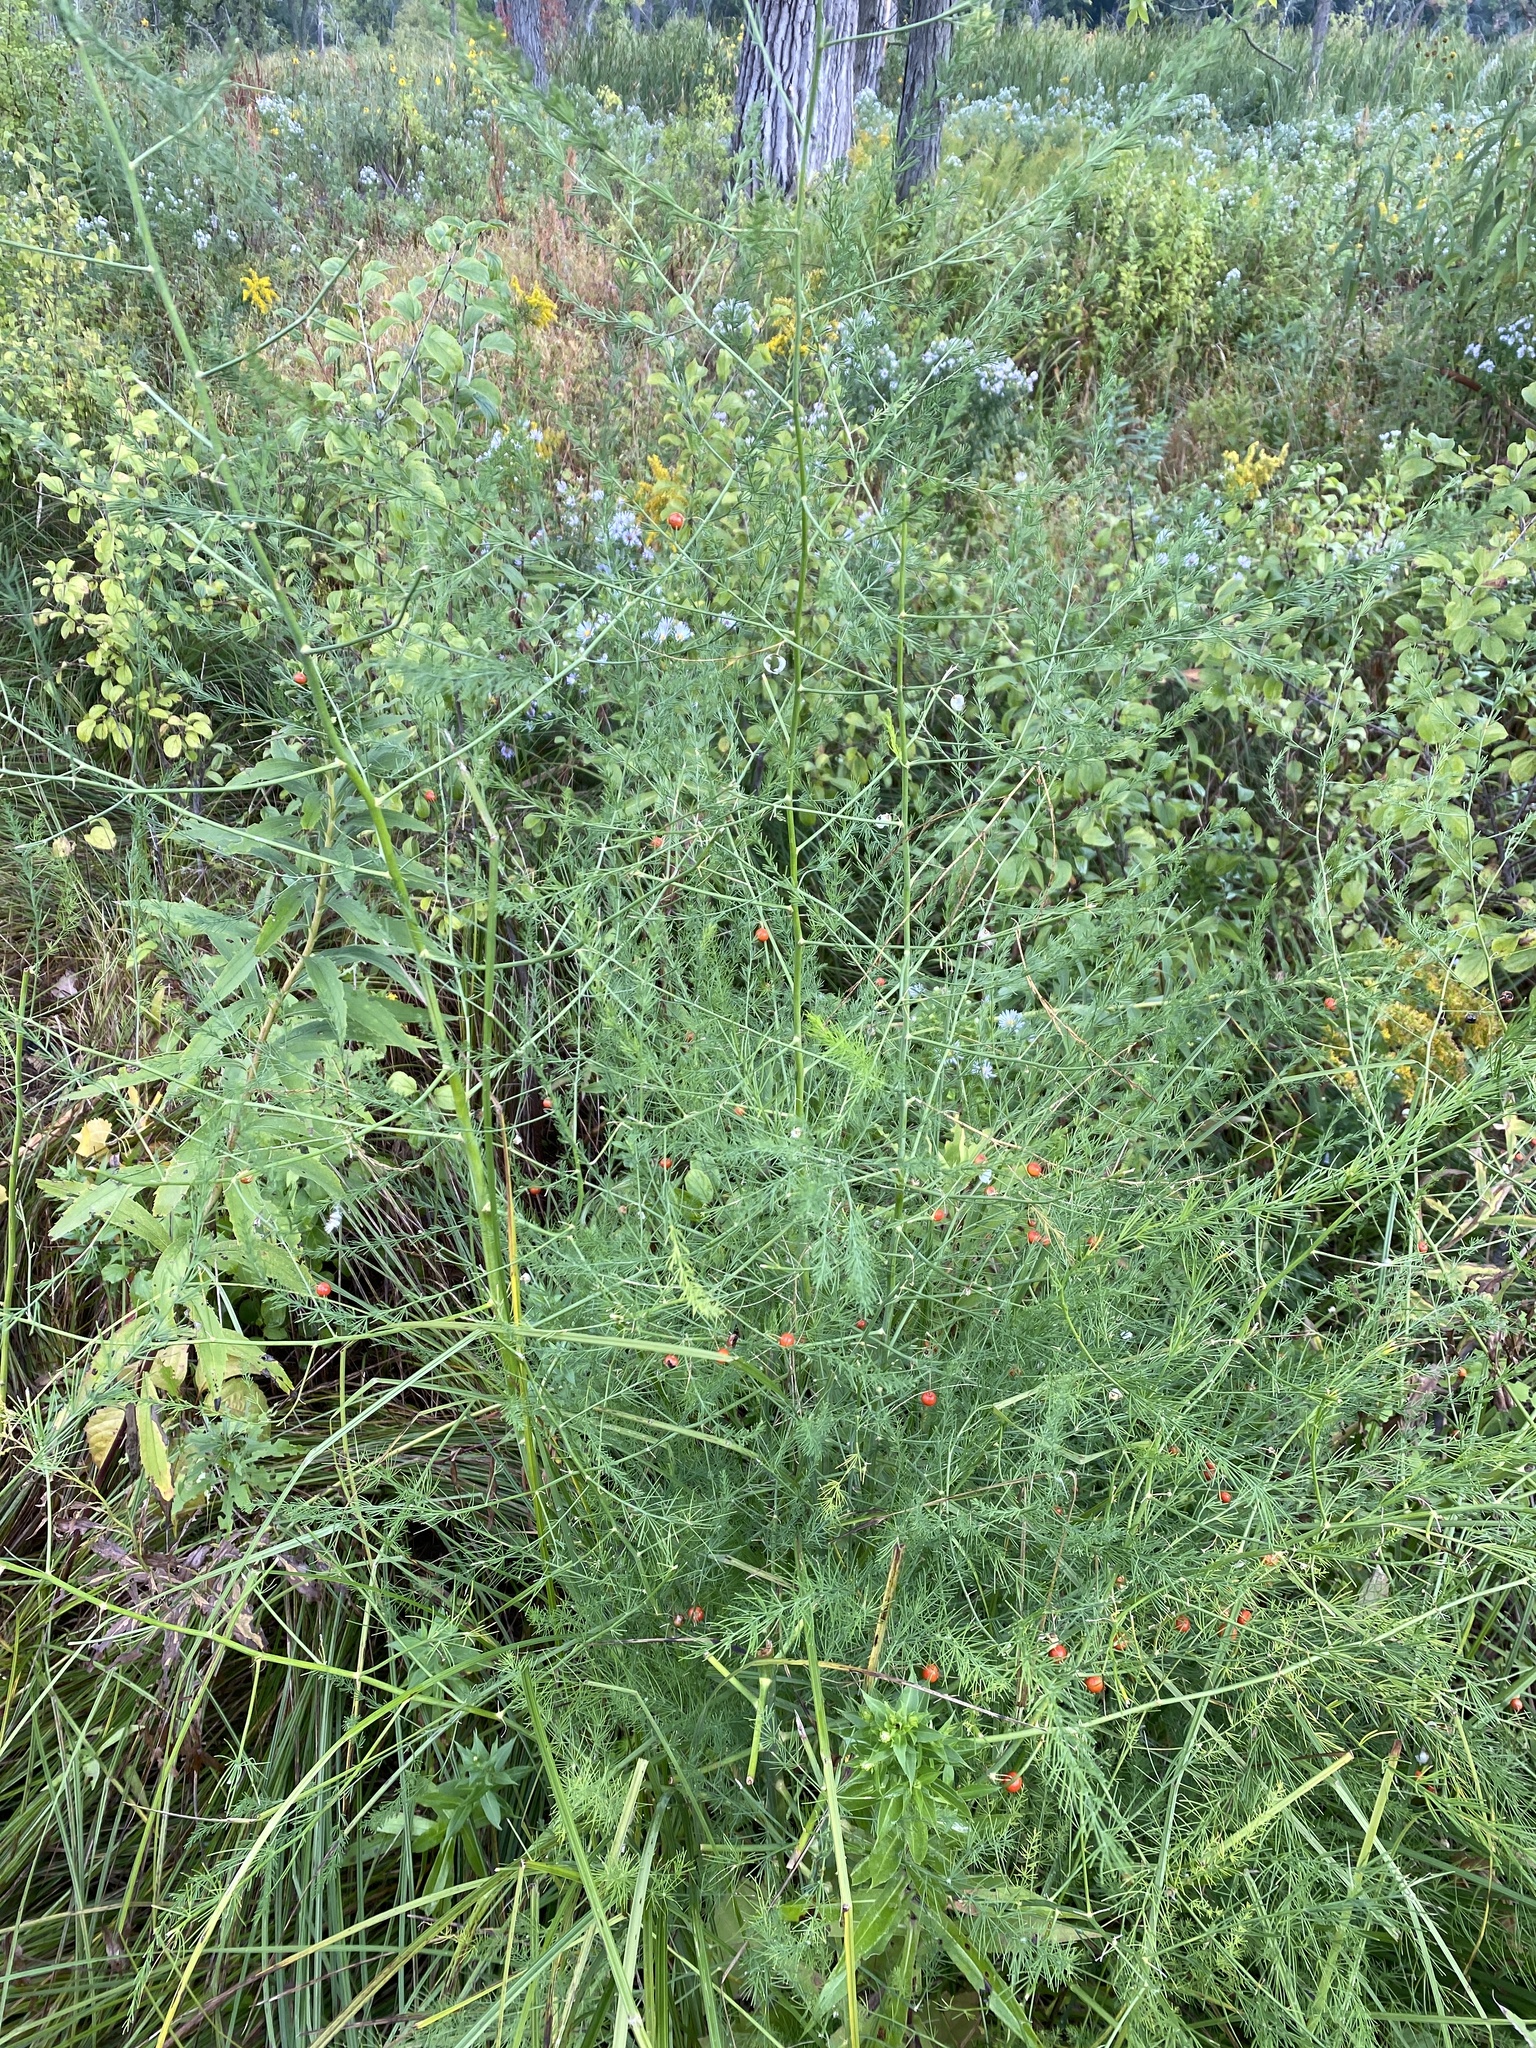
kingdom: Plantae
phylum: Tracheophyta
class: Liliopsida
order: Asparagales
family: Asparagaceae
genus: Asparagus
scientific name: Asparagus officinalis
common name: Garden asparagus
